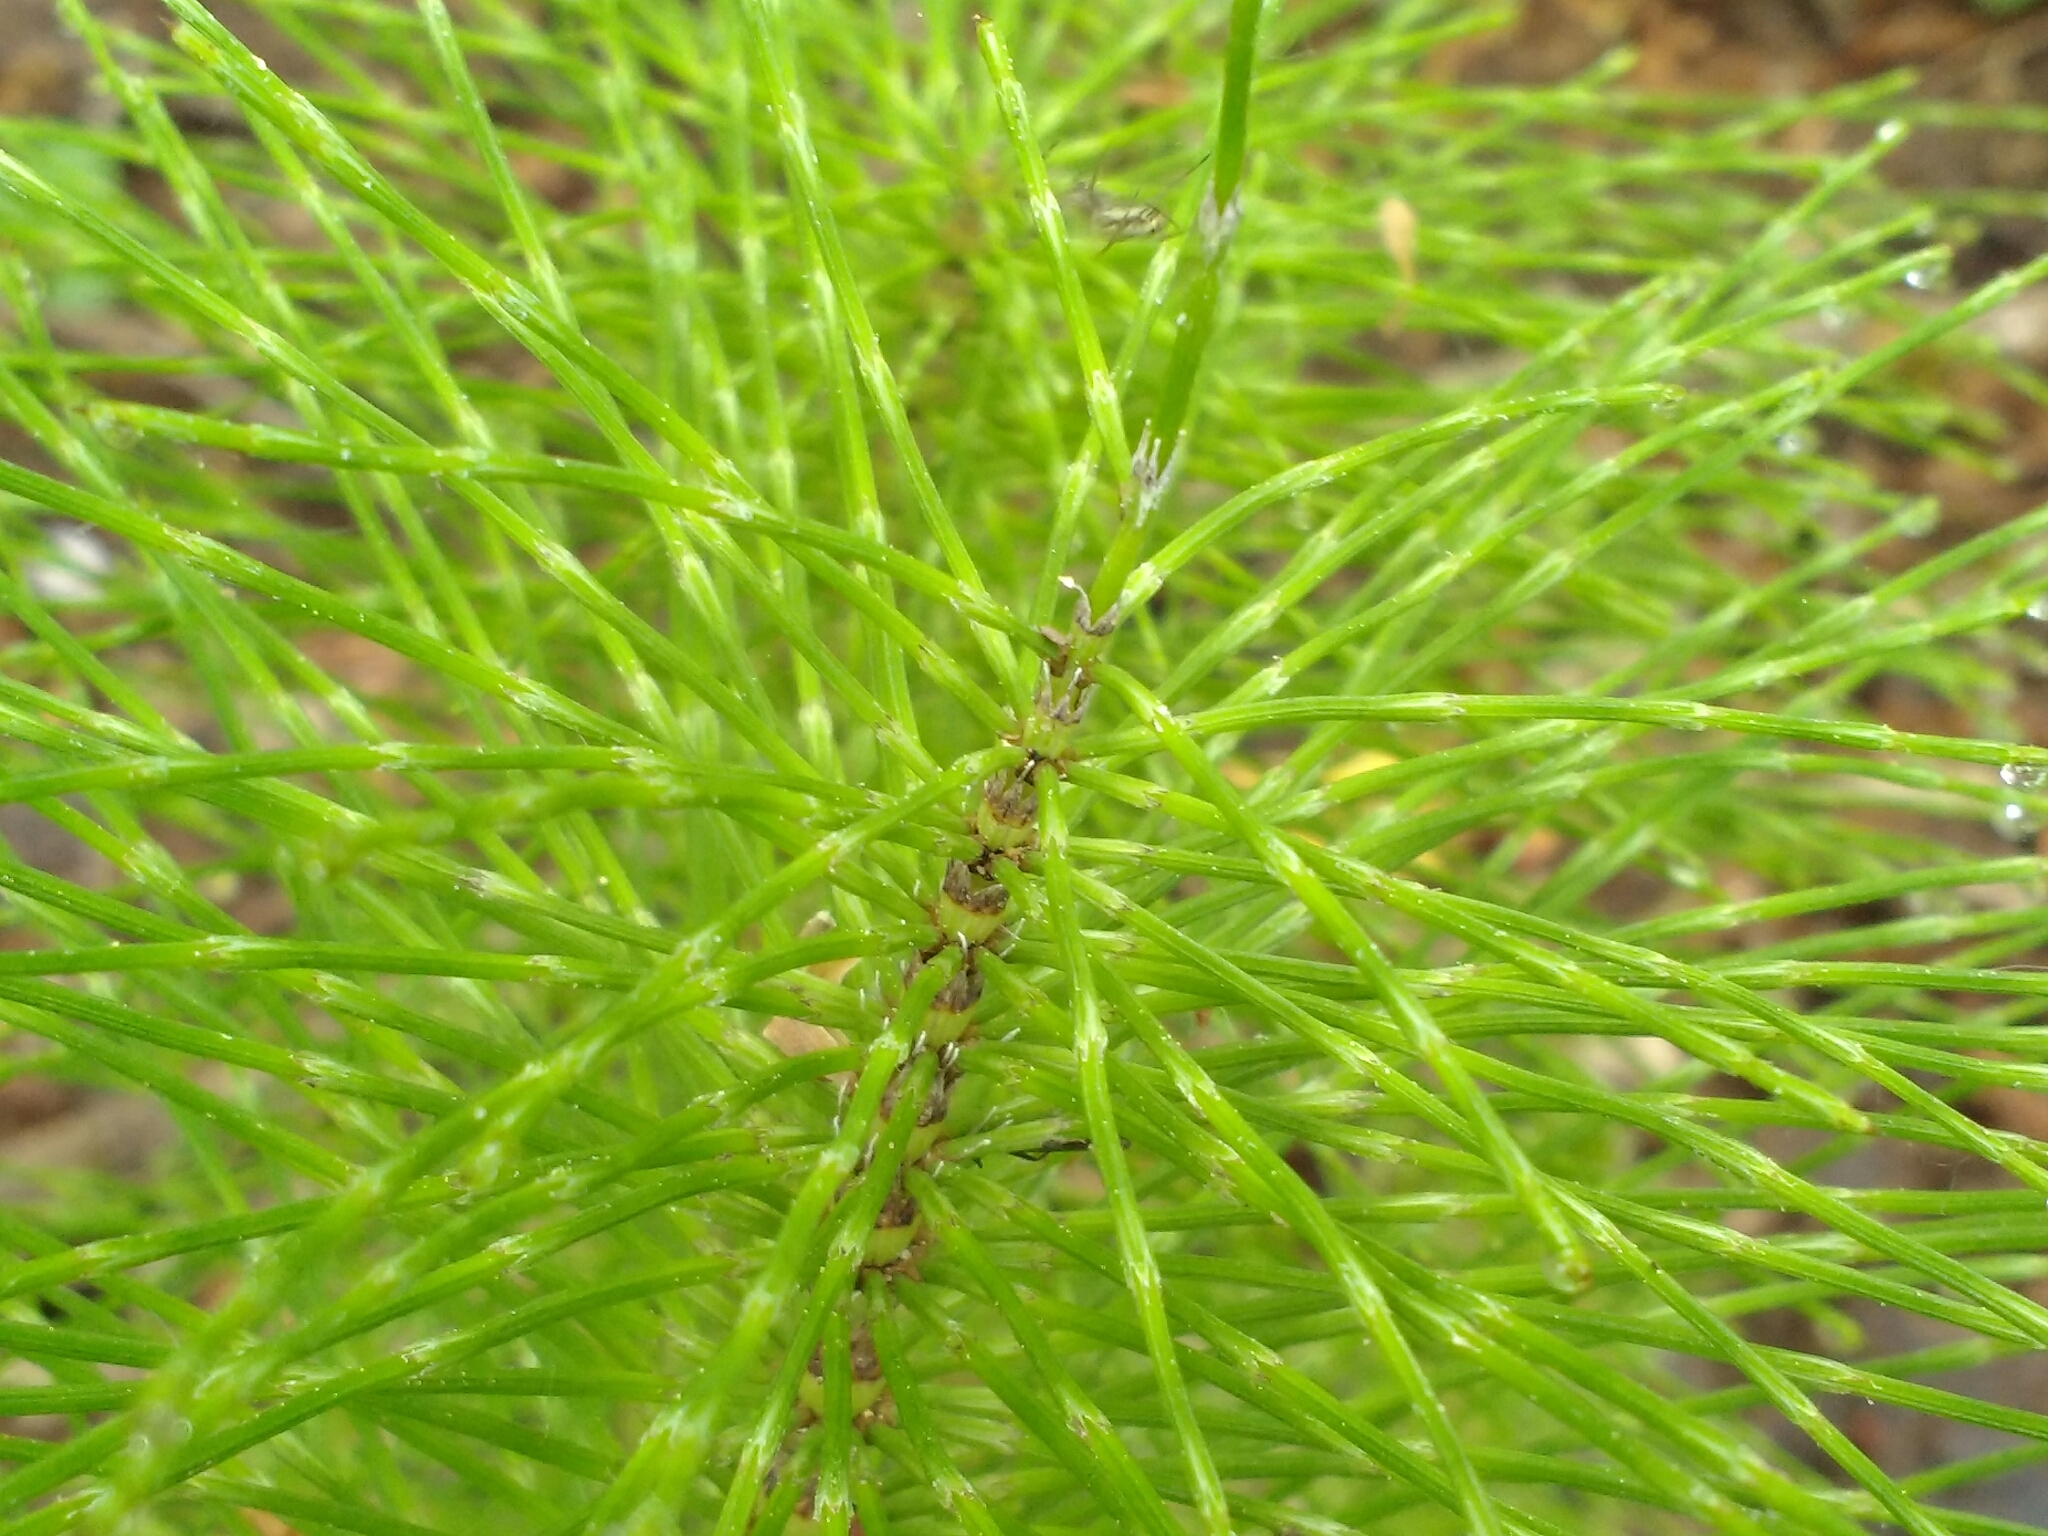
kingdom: Plantae
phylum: Tracheophyta
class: Polypodiopsida
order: Equisetales
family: Equisetaceae
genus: Equisetum
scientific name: Equisetum telmateia
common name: Great horsetail
